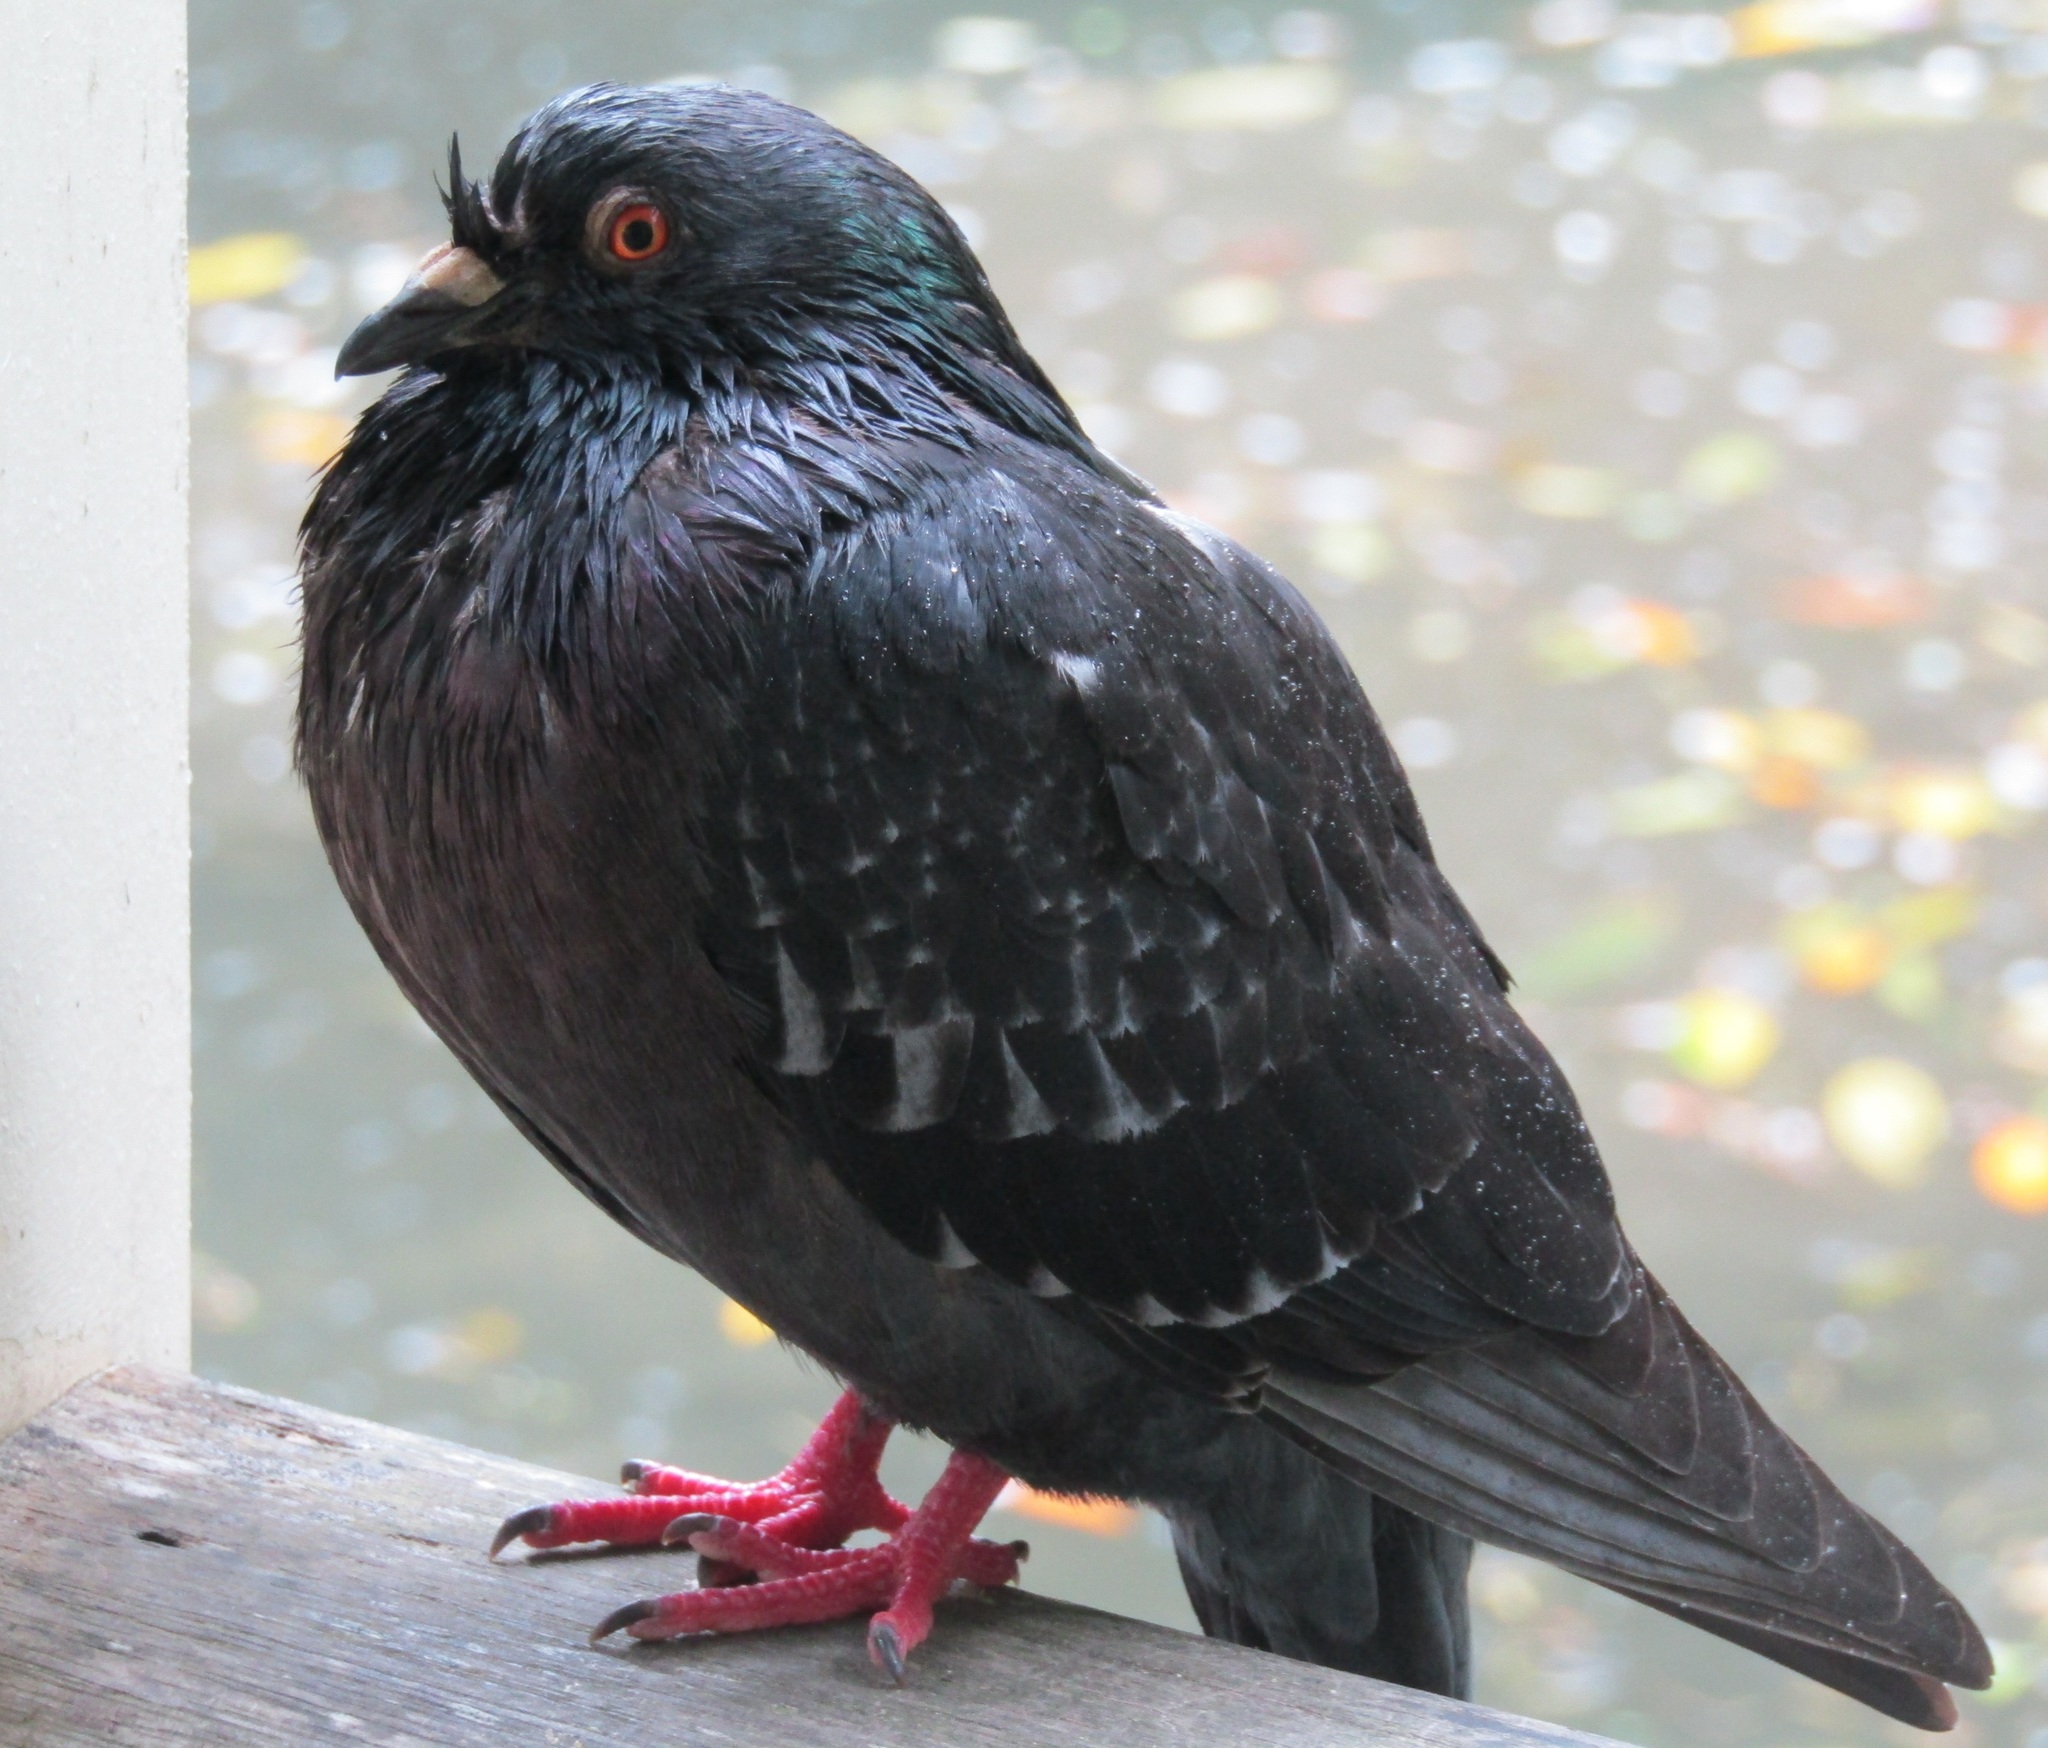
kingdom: Animalia
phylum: Chordata
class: Aves
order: Columbiformes
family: Columbidae
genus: Columba
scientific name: Columba livia
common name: Rock pigeon
